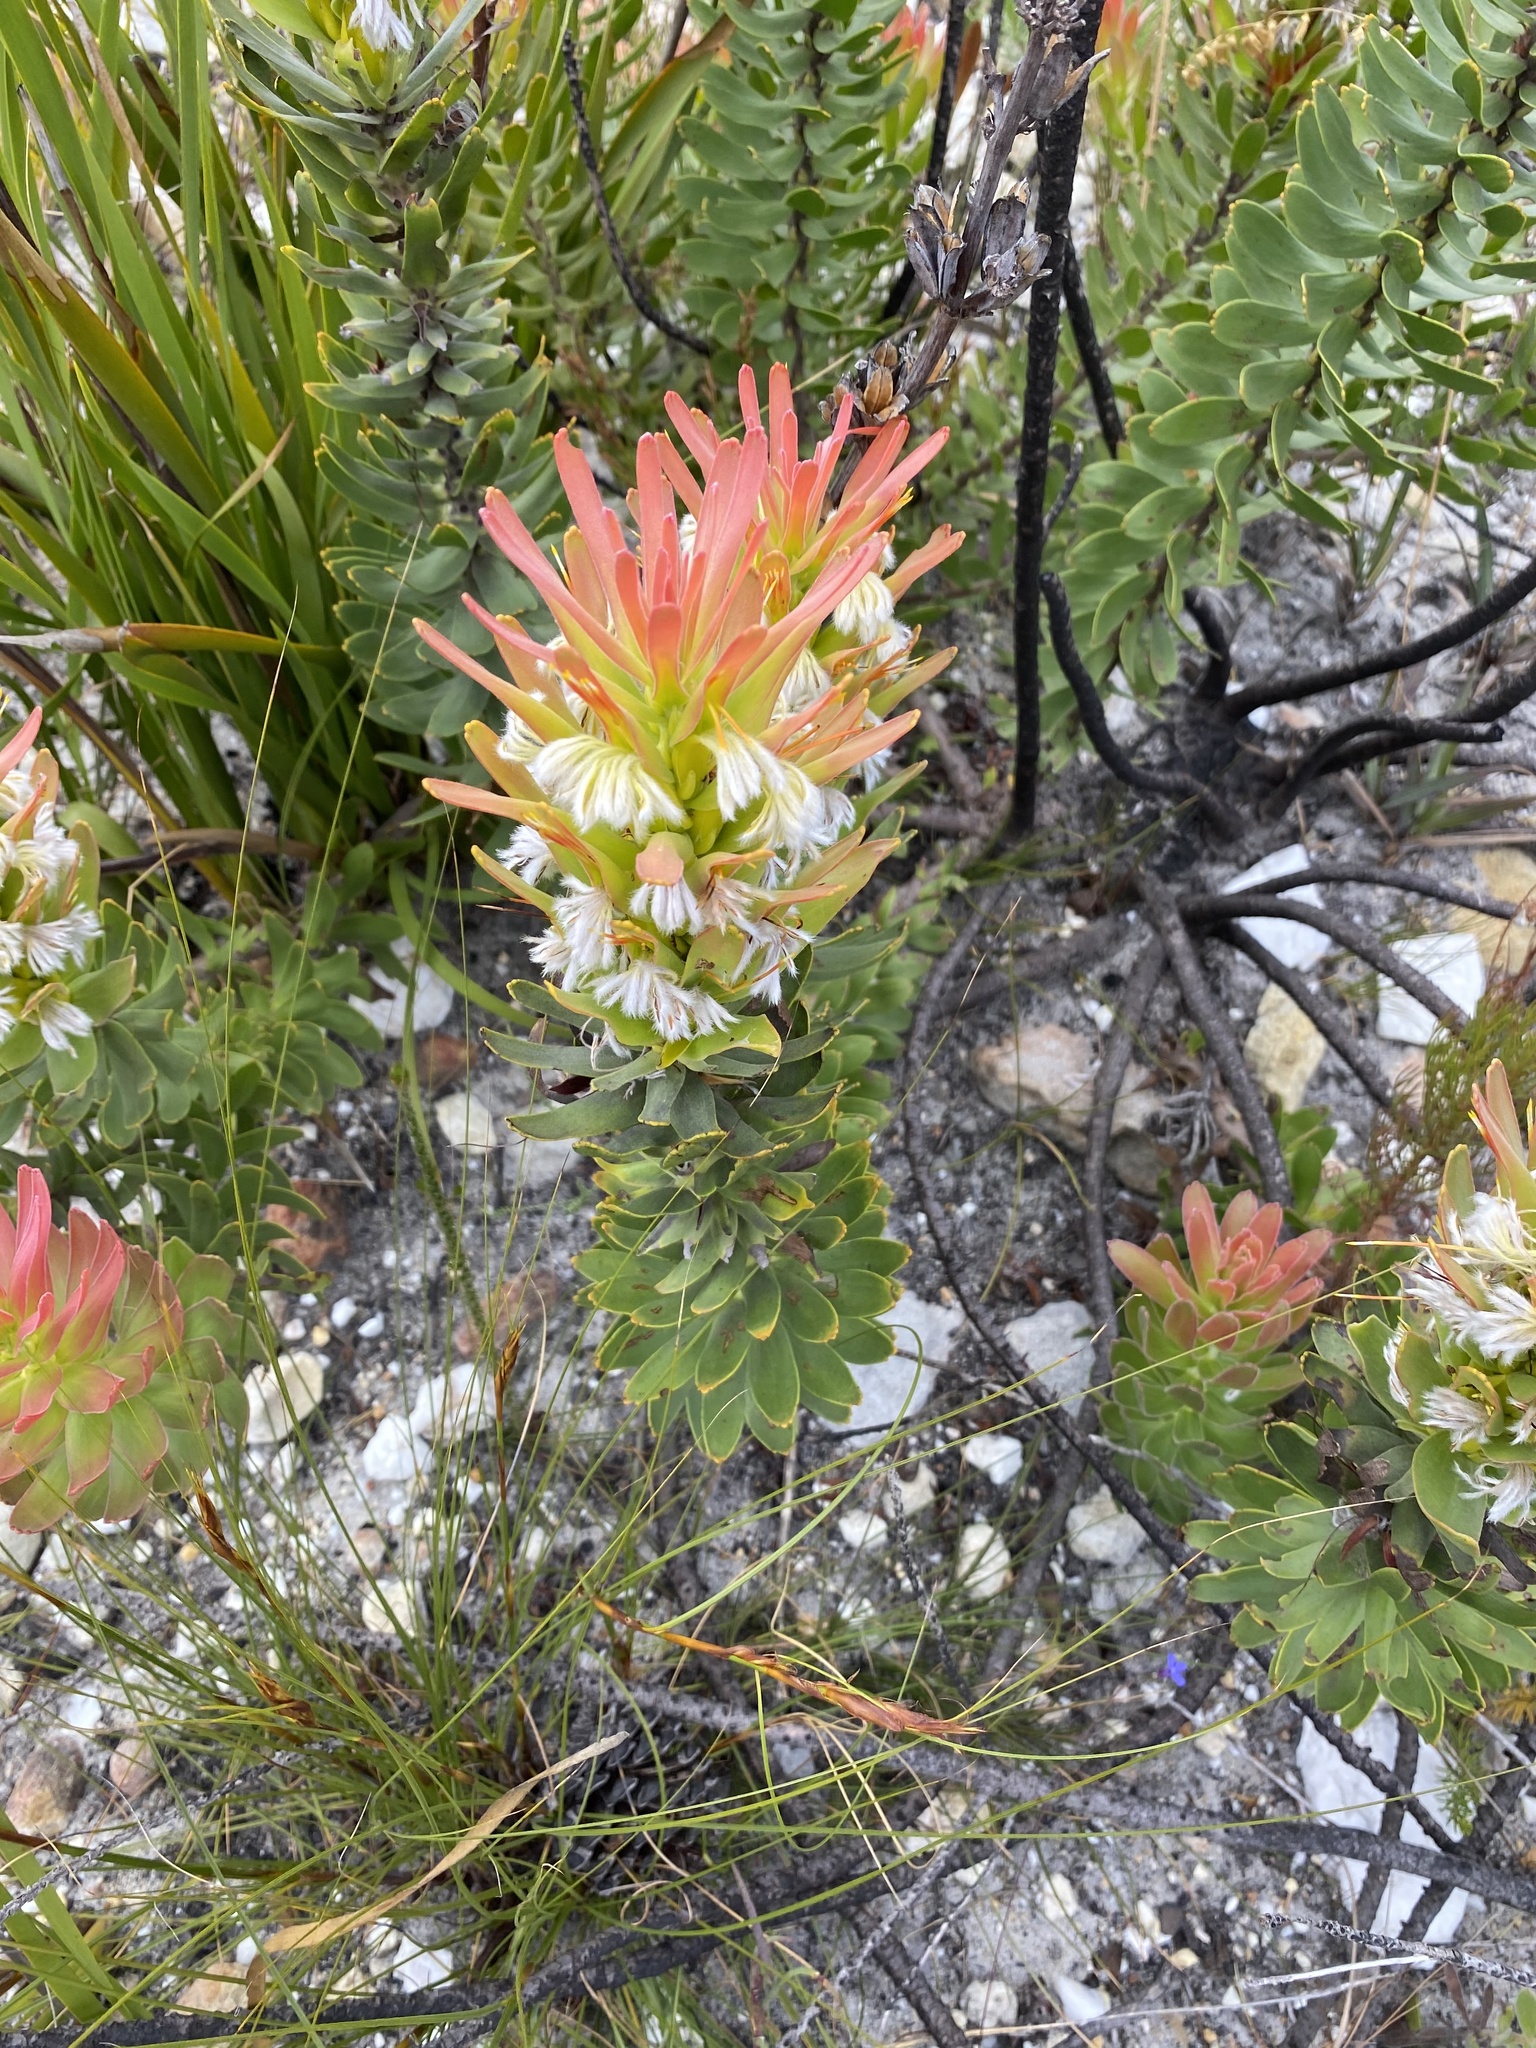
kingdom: Plantae
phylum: Tracheophyta
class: Magnoliopsida
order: Proteales
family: Proteaceae
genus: Mimetes
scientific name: Mimetes cucullatus
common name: Common pagoda
